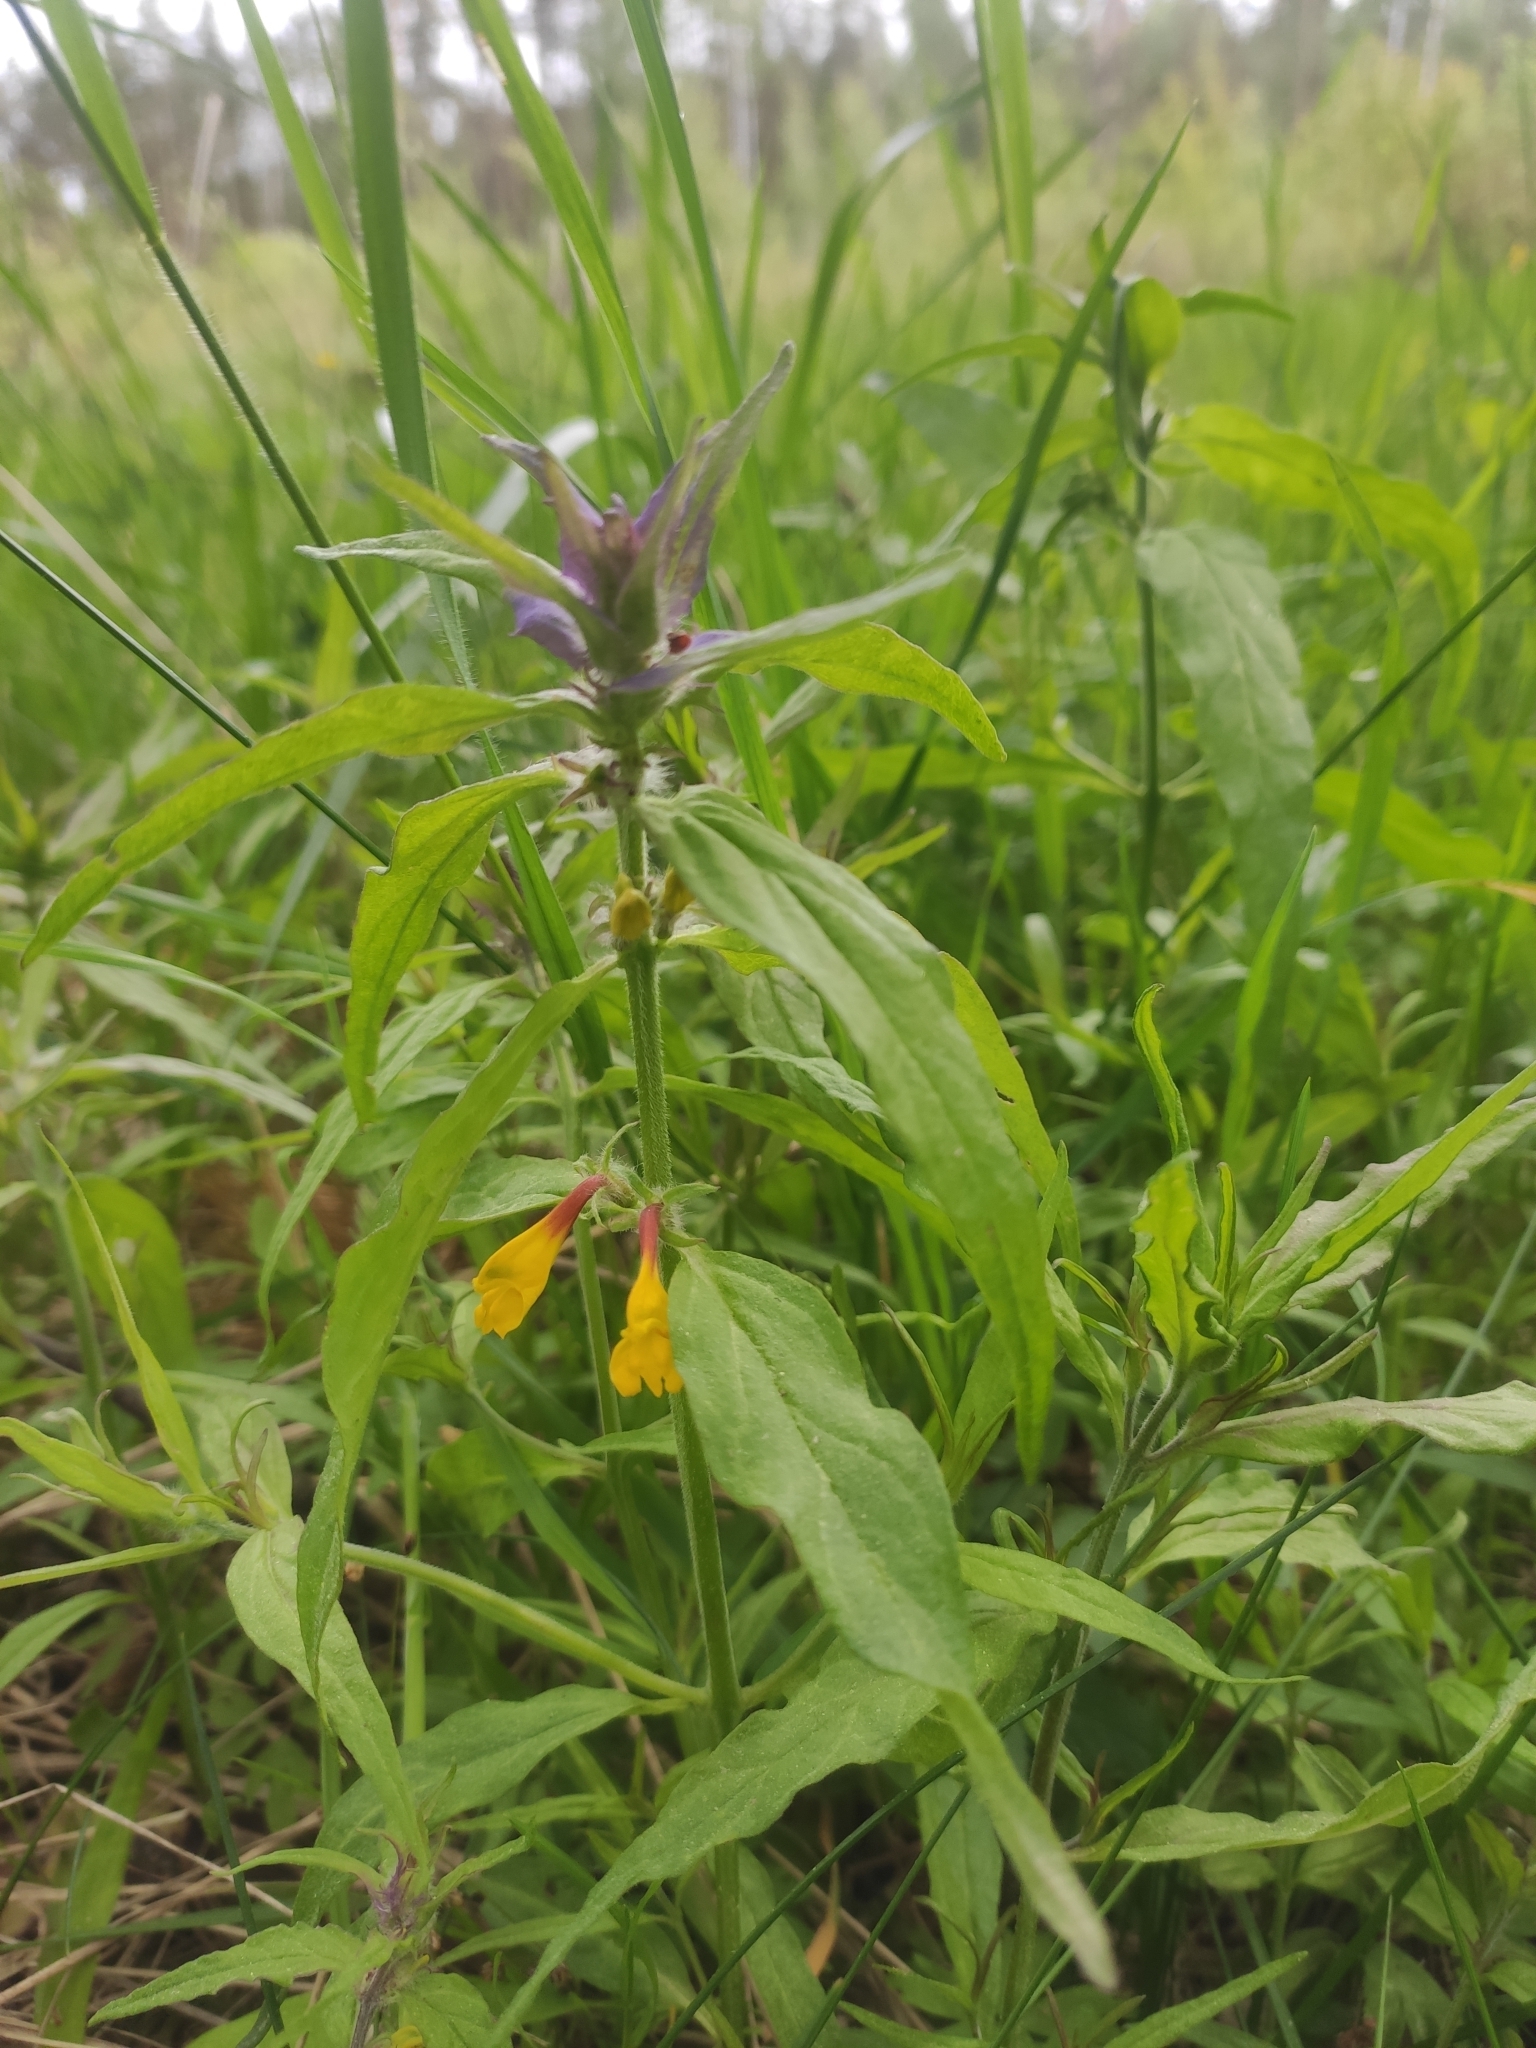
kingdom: Plantae
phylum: Tracheophyta
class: Magnoliopsida
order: Lamiales
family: Orobanchaceae
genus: Melampyrum
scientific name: Melampyrum nemorosum
